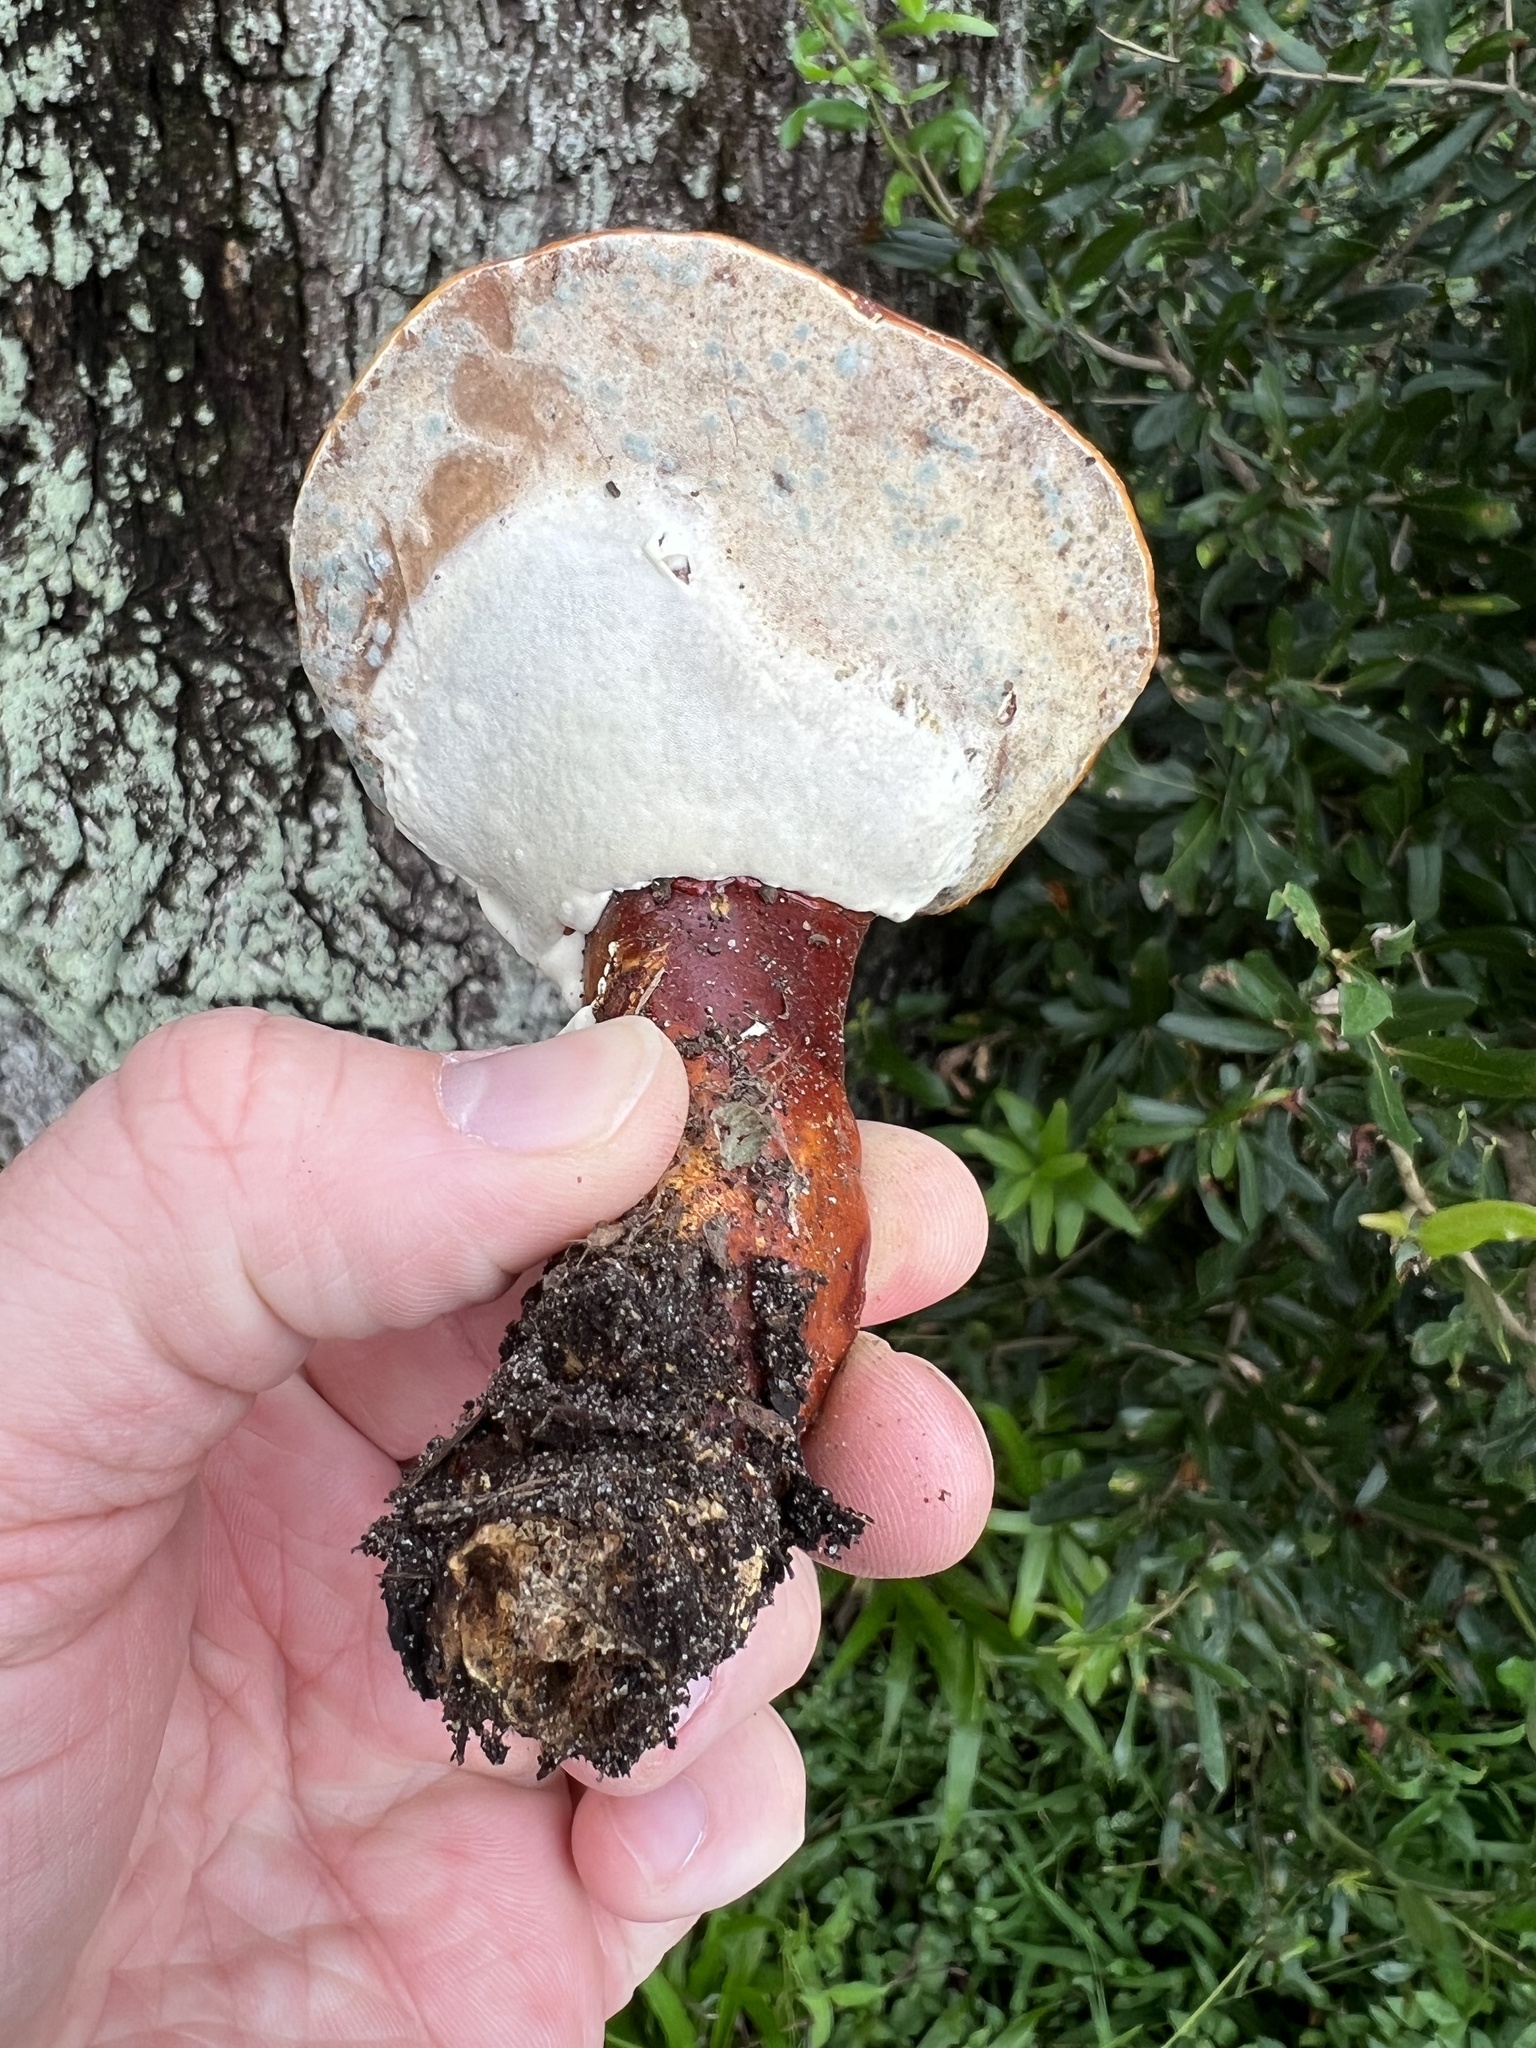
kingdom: Fungi
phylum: Basidiomycota
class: Agaricomycetes
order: Polyporales
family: Polyporaceae
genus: Ganoderma
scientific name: Ganoderma curtisii
